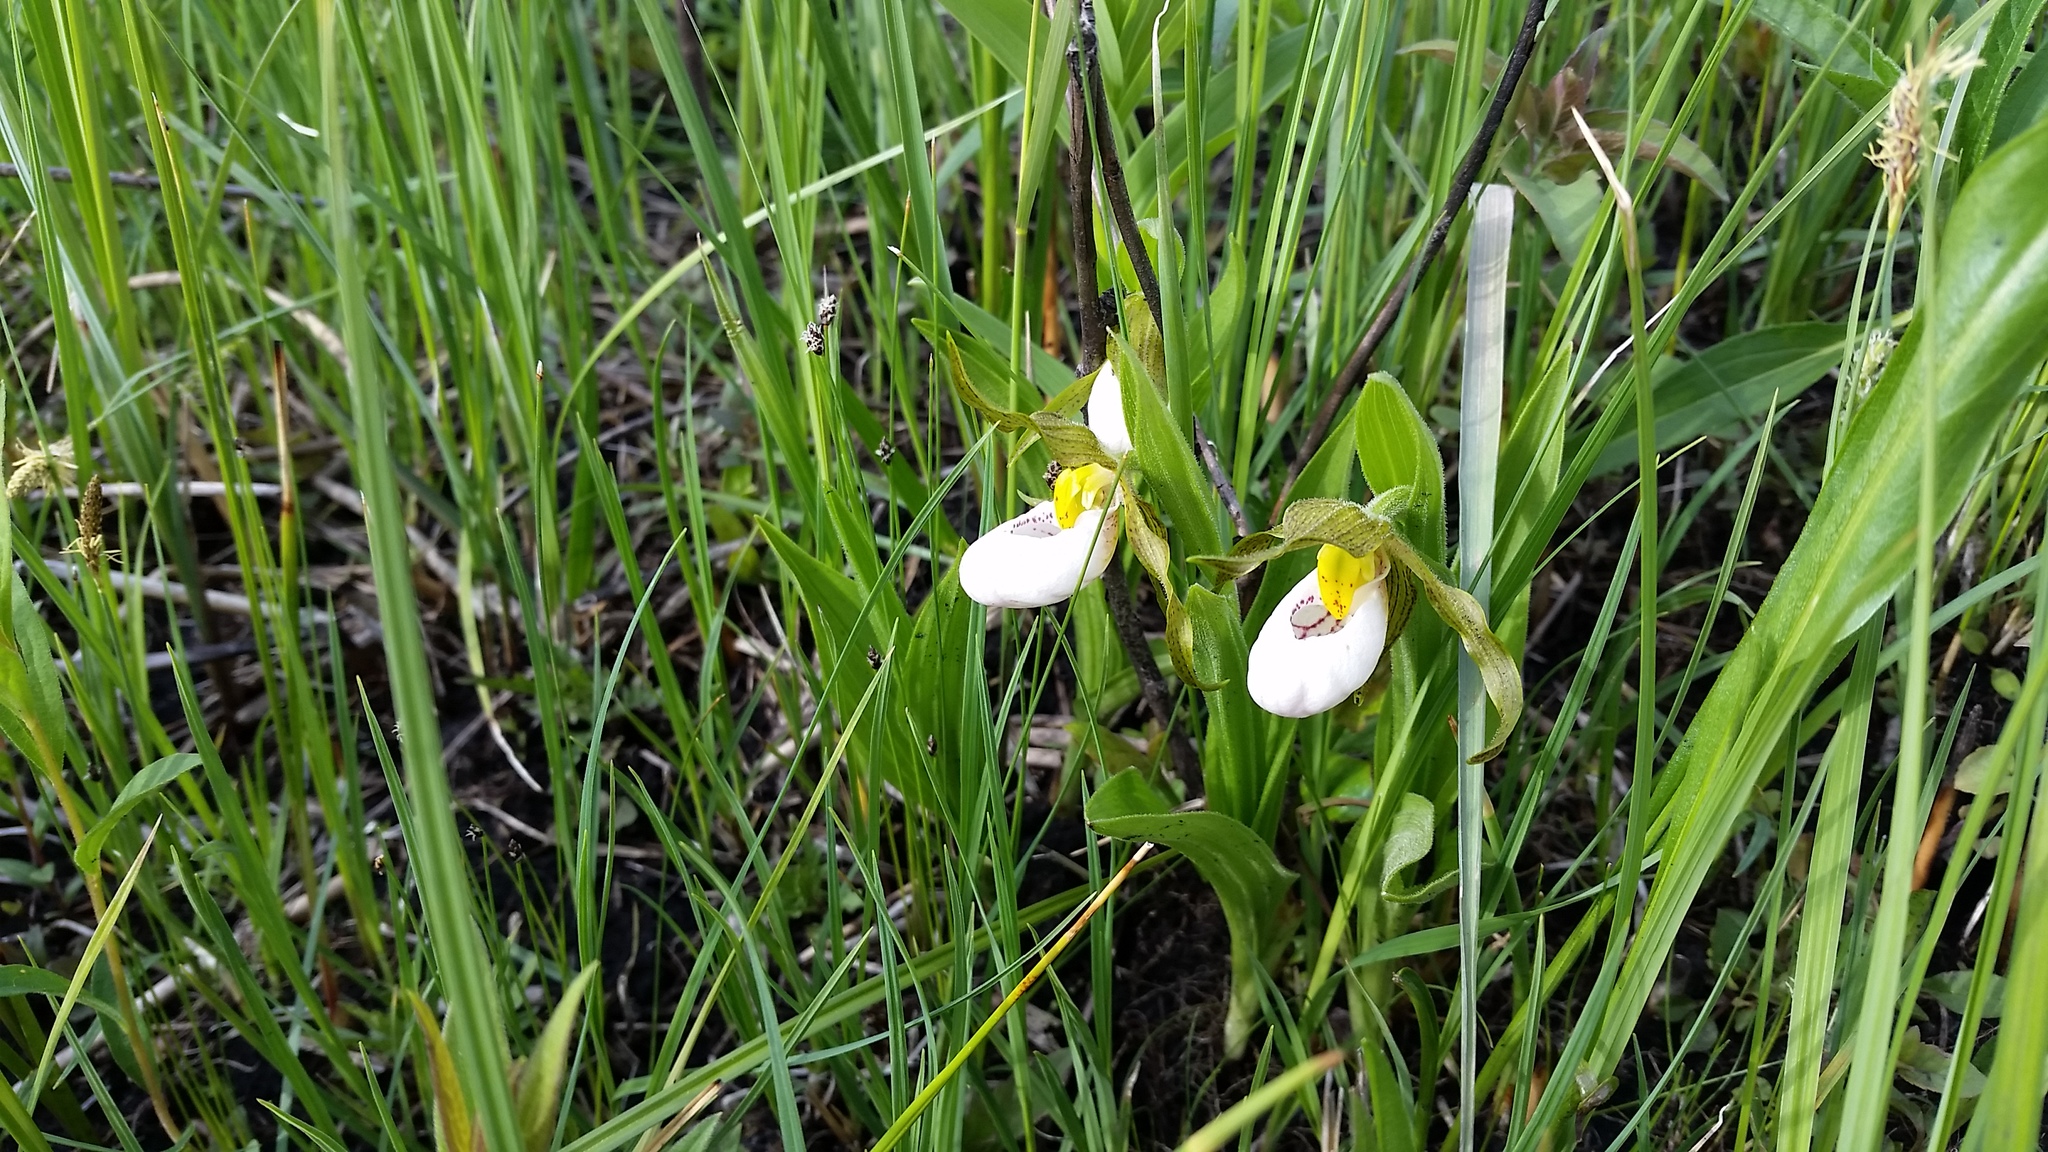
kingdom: Plantae
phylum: Tracheophyta
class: Liliopsida
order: Asparagales
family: Orchidaceae
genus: Cypripedium
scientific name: Cypripedium candidum
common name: White lady's-slipper
